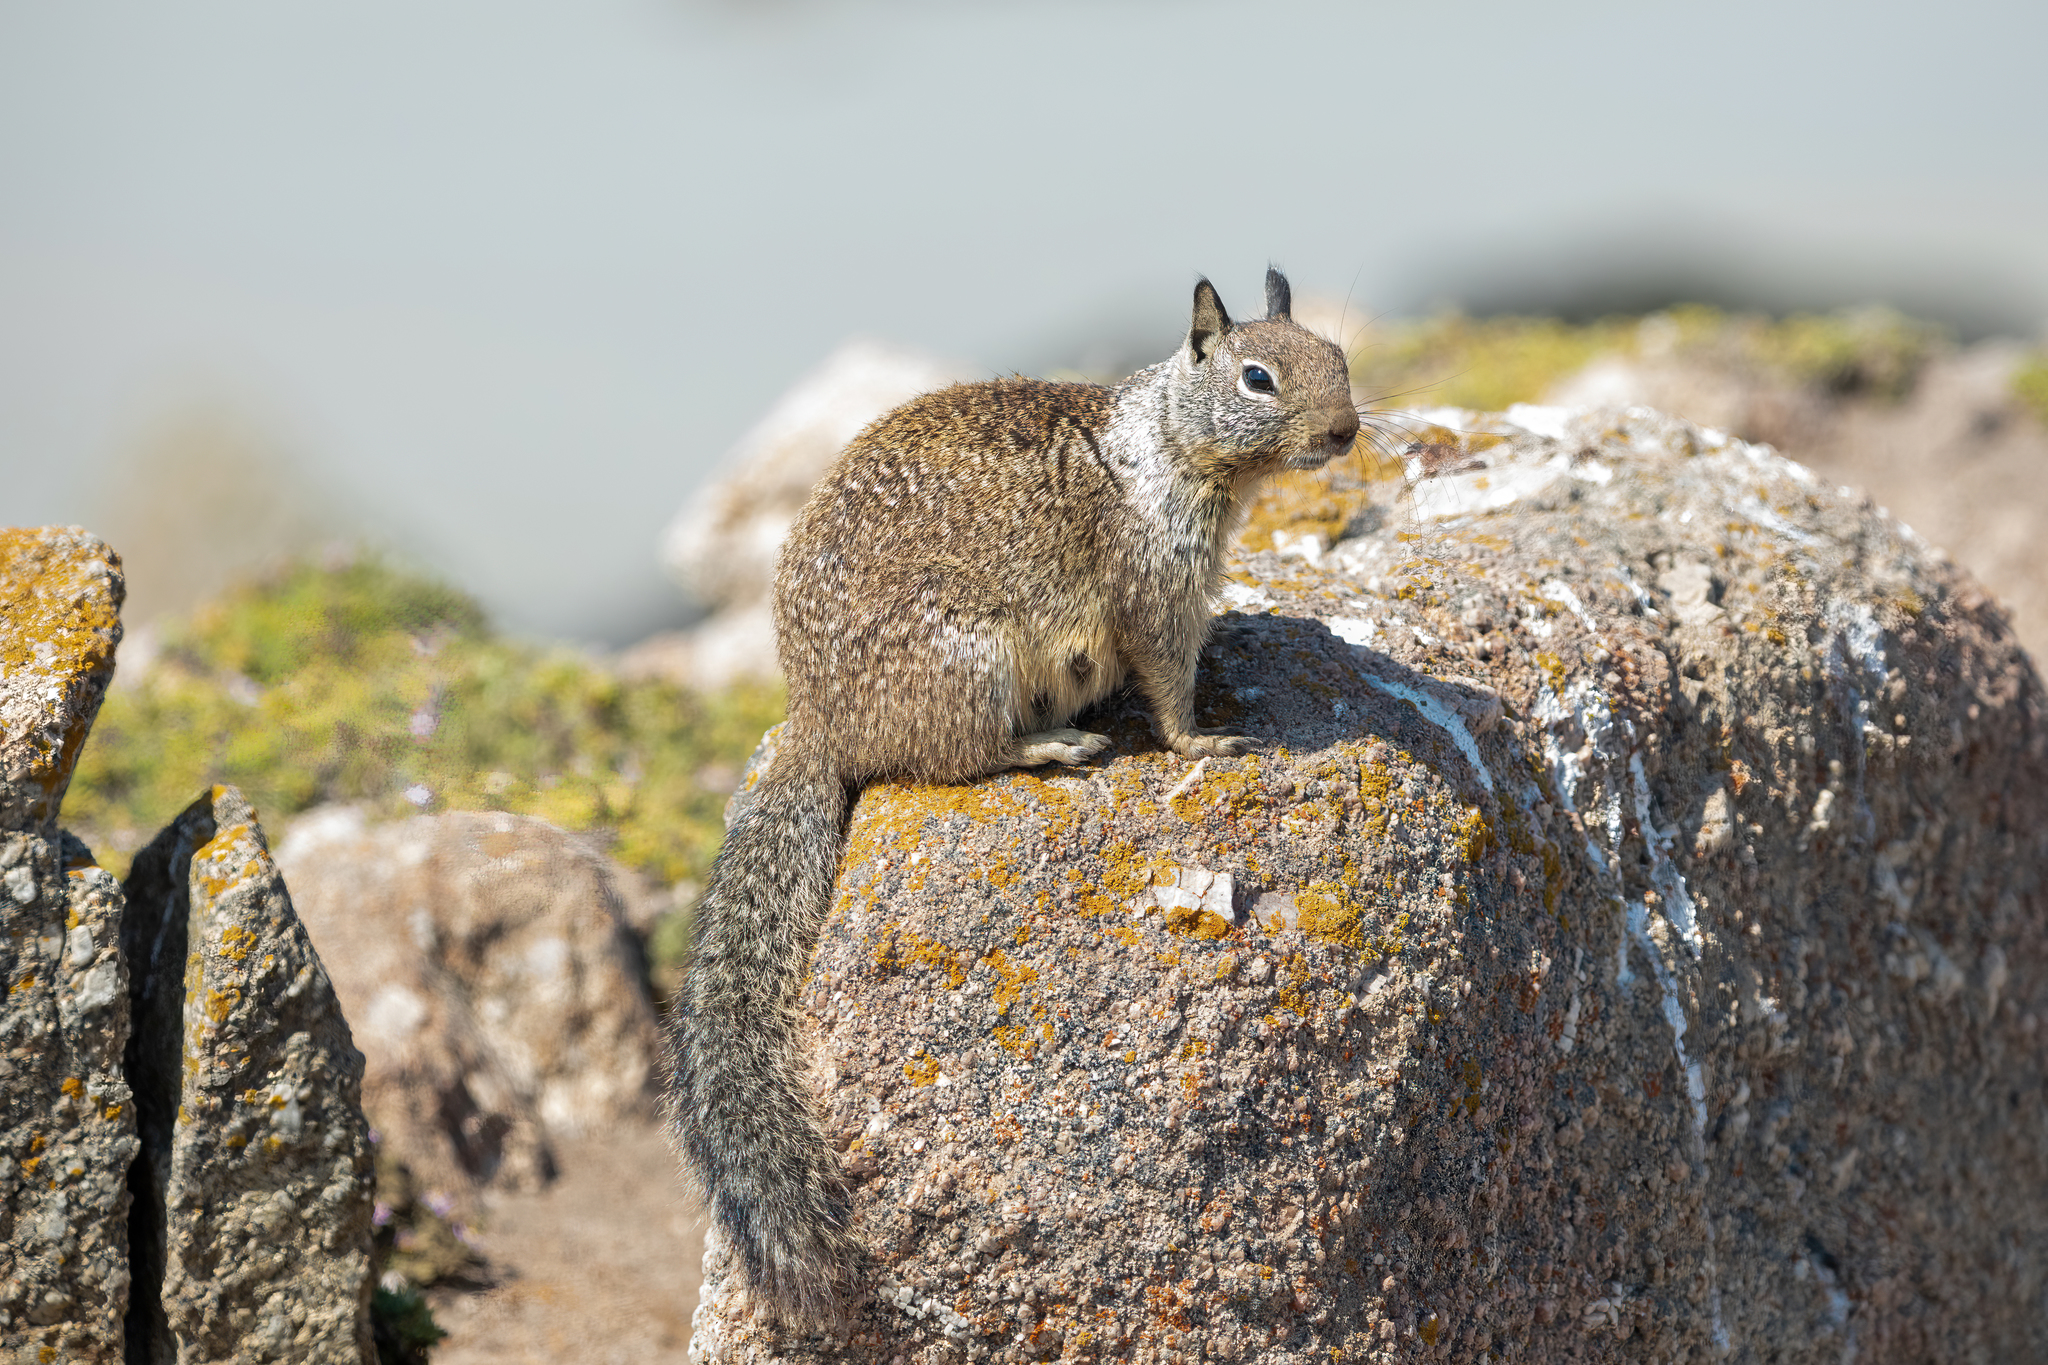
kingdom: Animalia
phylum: Chordata
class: Mammalia
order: Rodentia
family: Sciuridae
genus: Otospermophilus
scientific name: Otospermophilus beecheyi
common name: California ground squirrel
